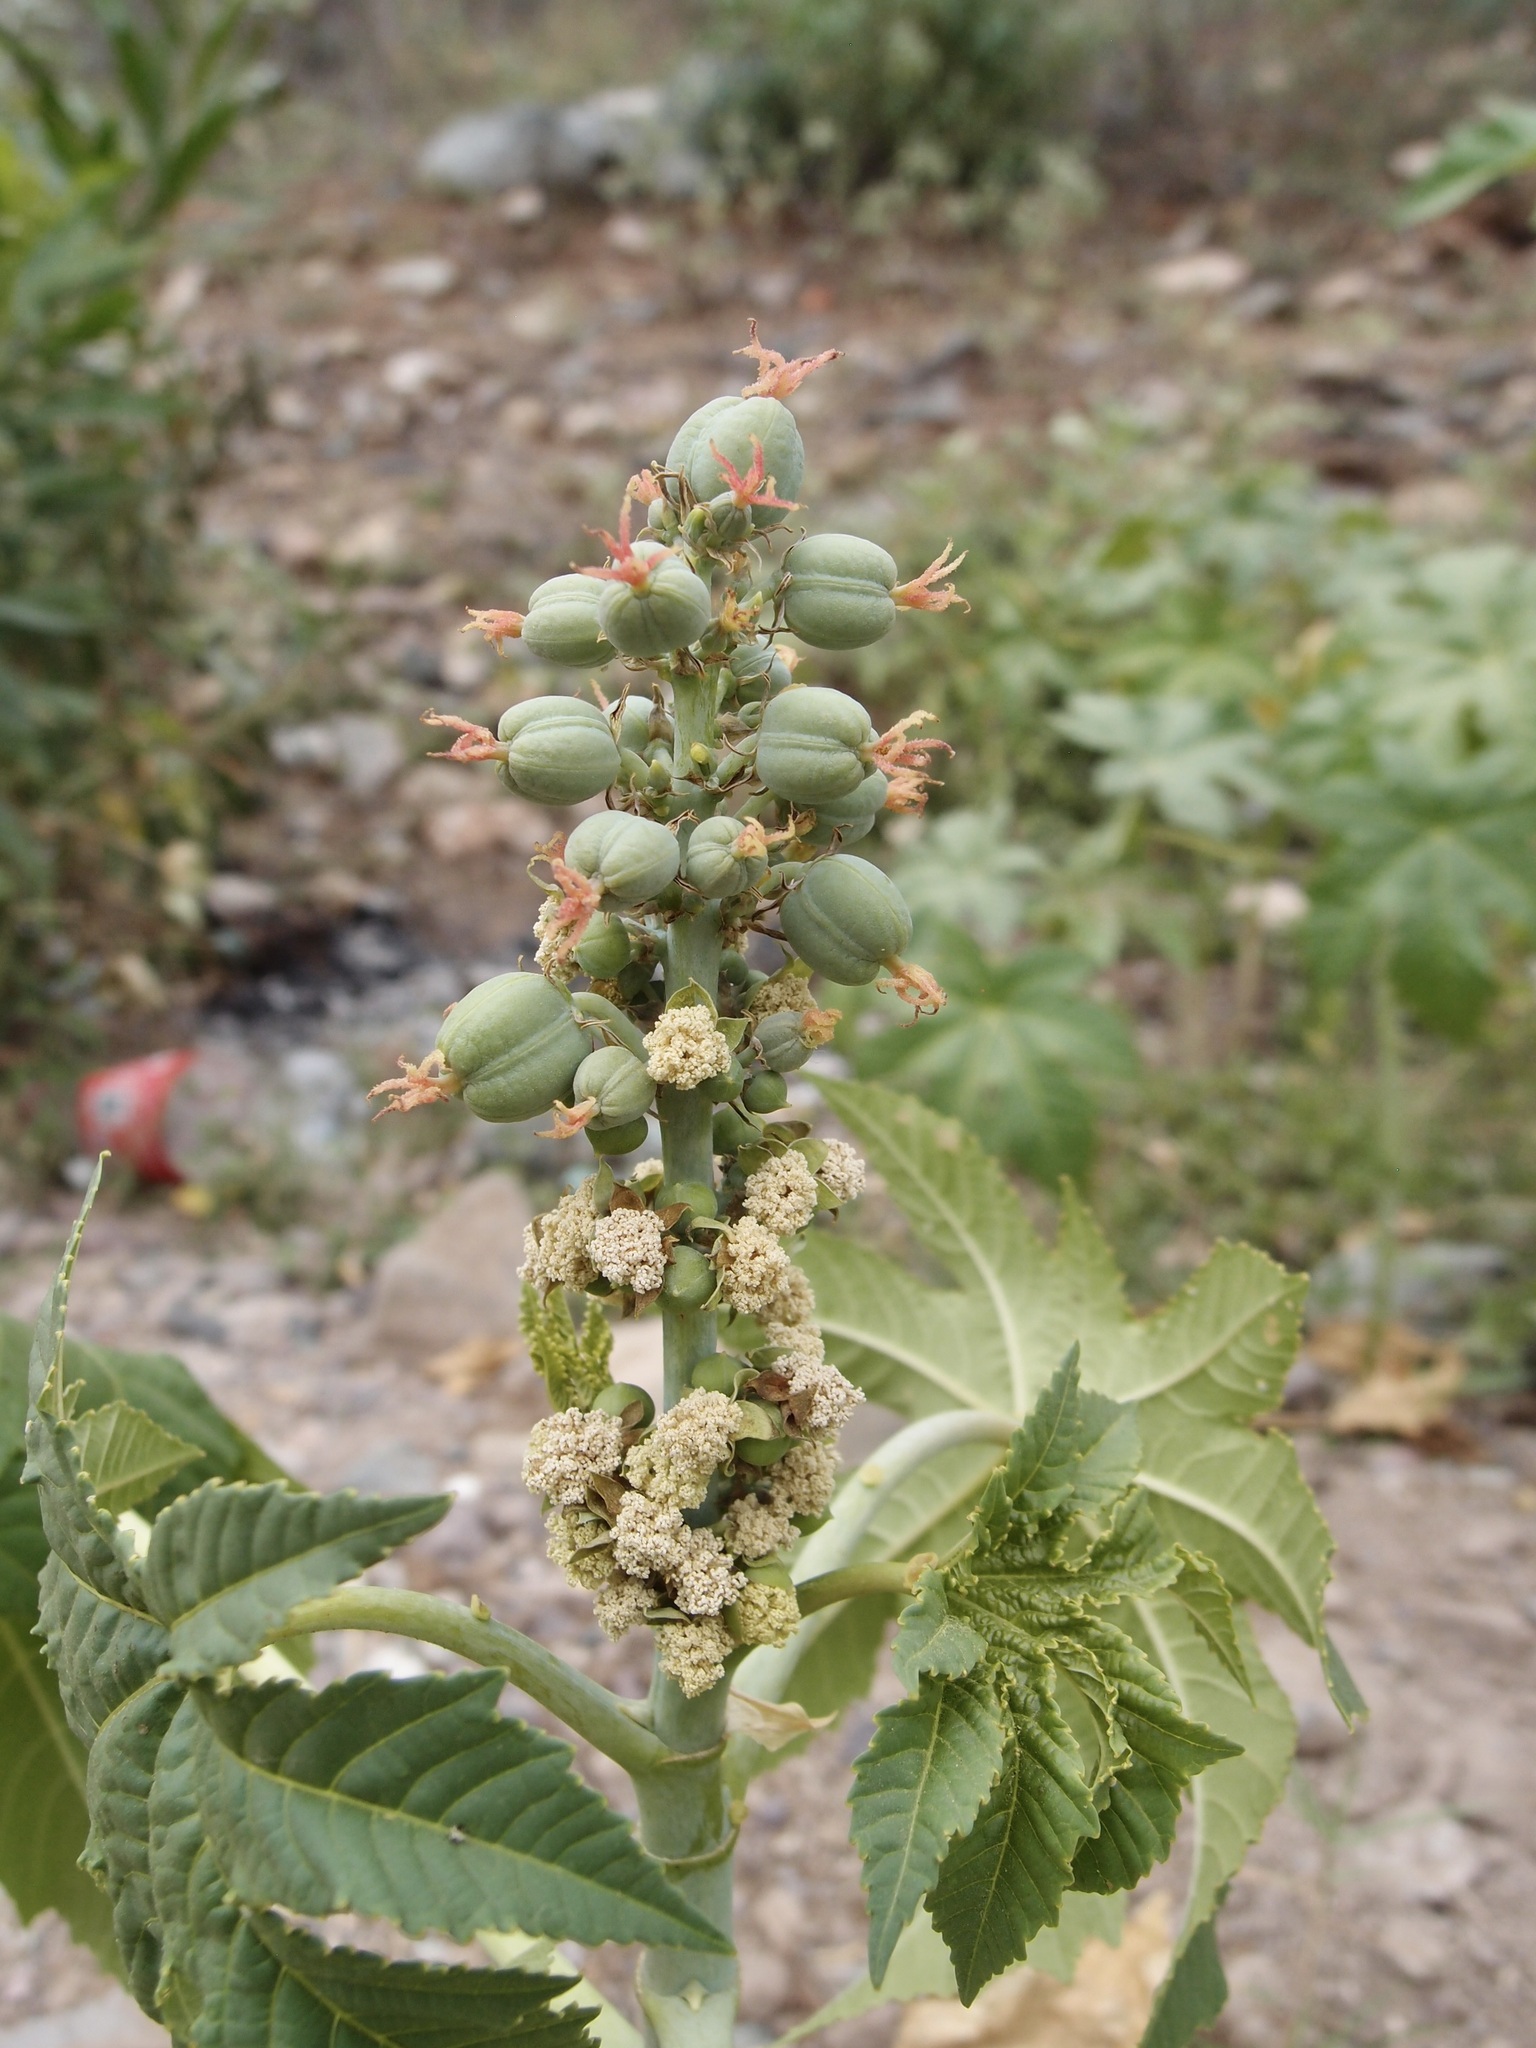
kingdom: Plantae
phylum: Tracheophyta
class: Magnoliopsida
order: Malpighiales
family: Euphorbiaceae
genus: Ricinus
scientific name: Ricinus communis
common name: Castor-oil-plant
